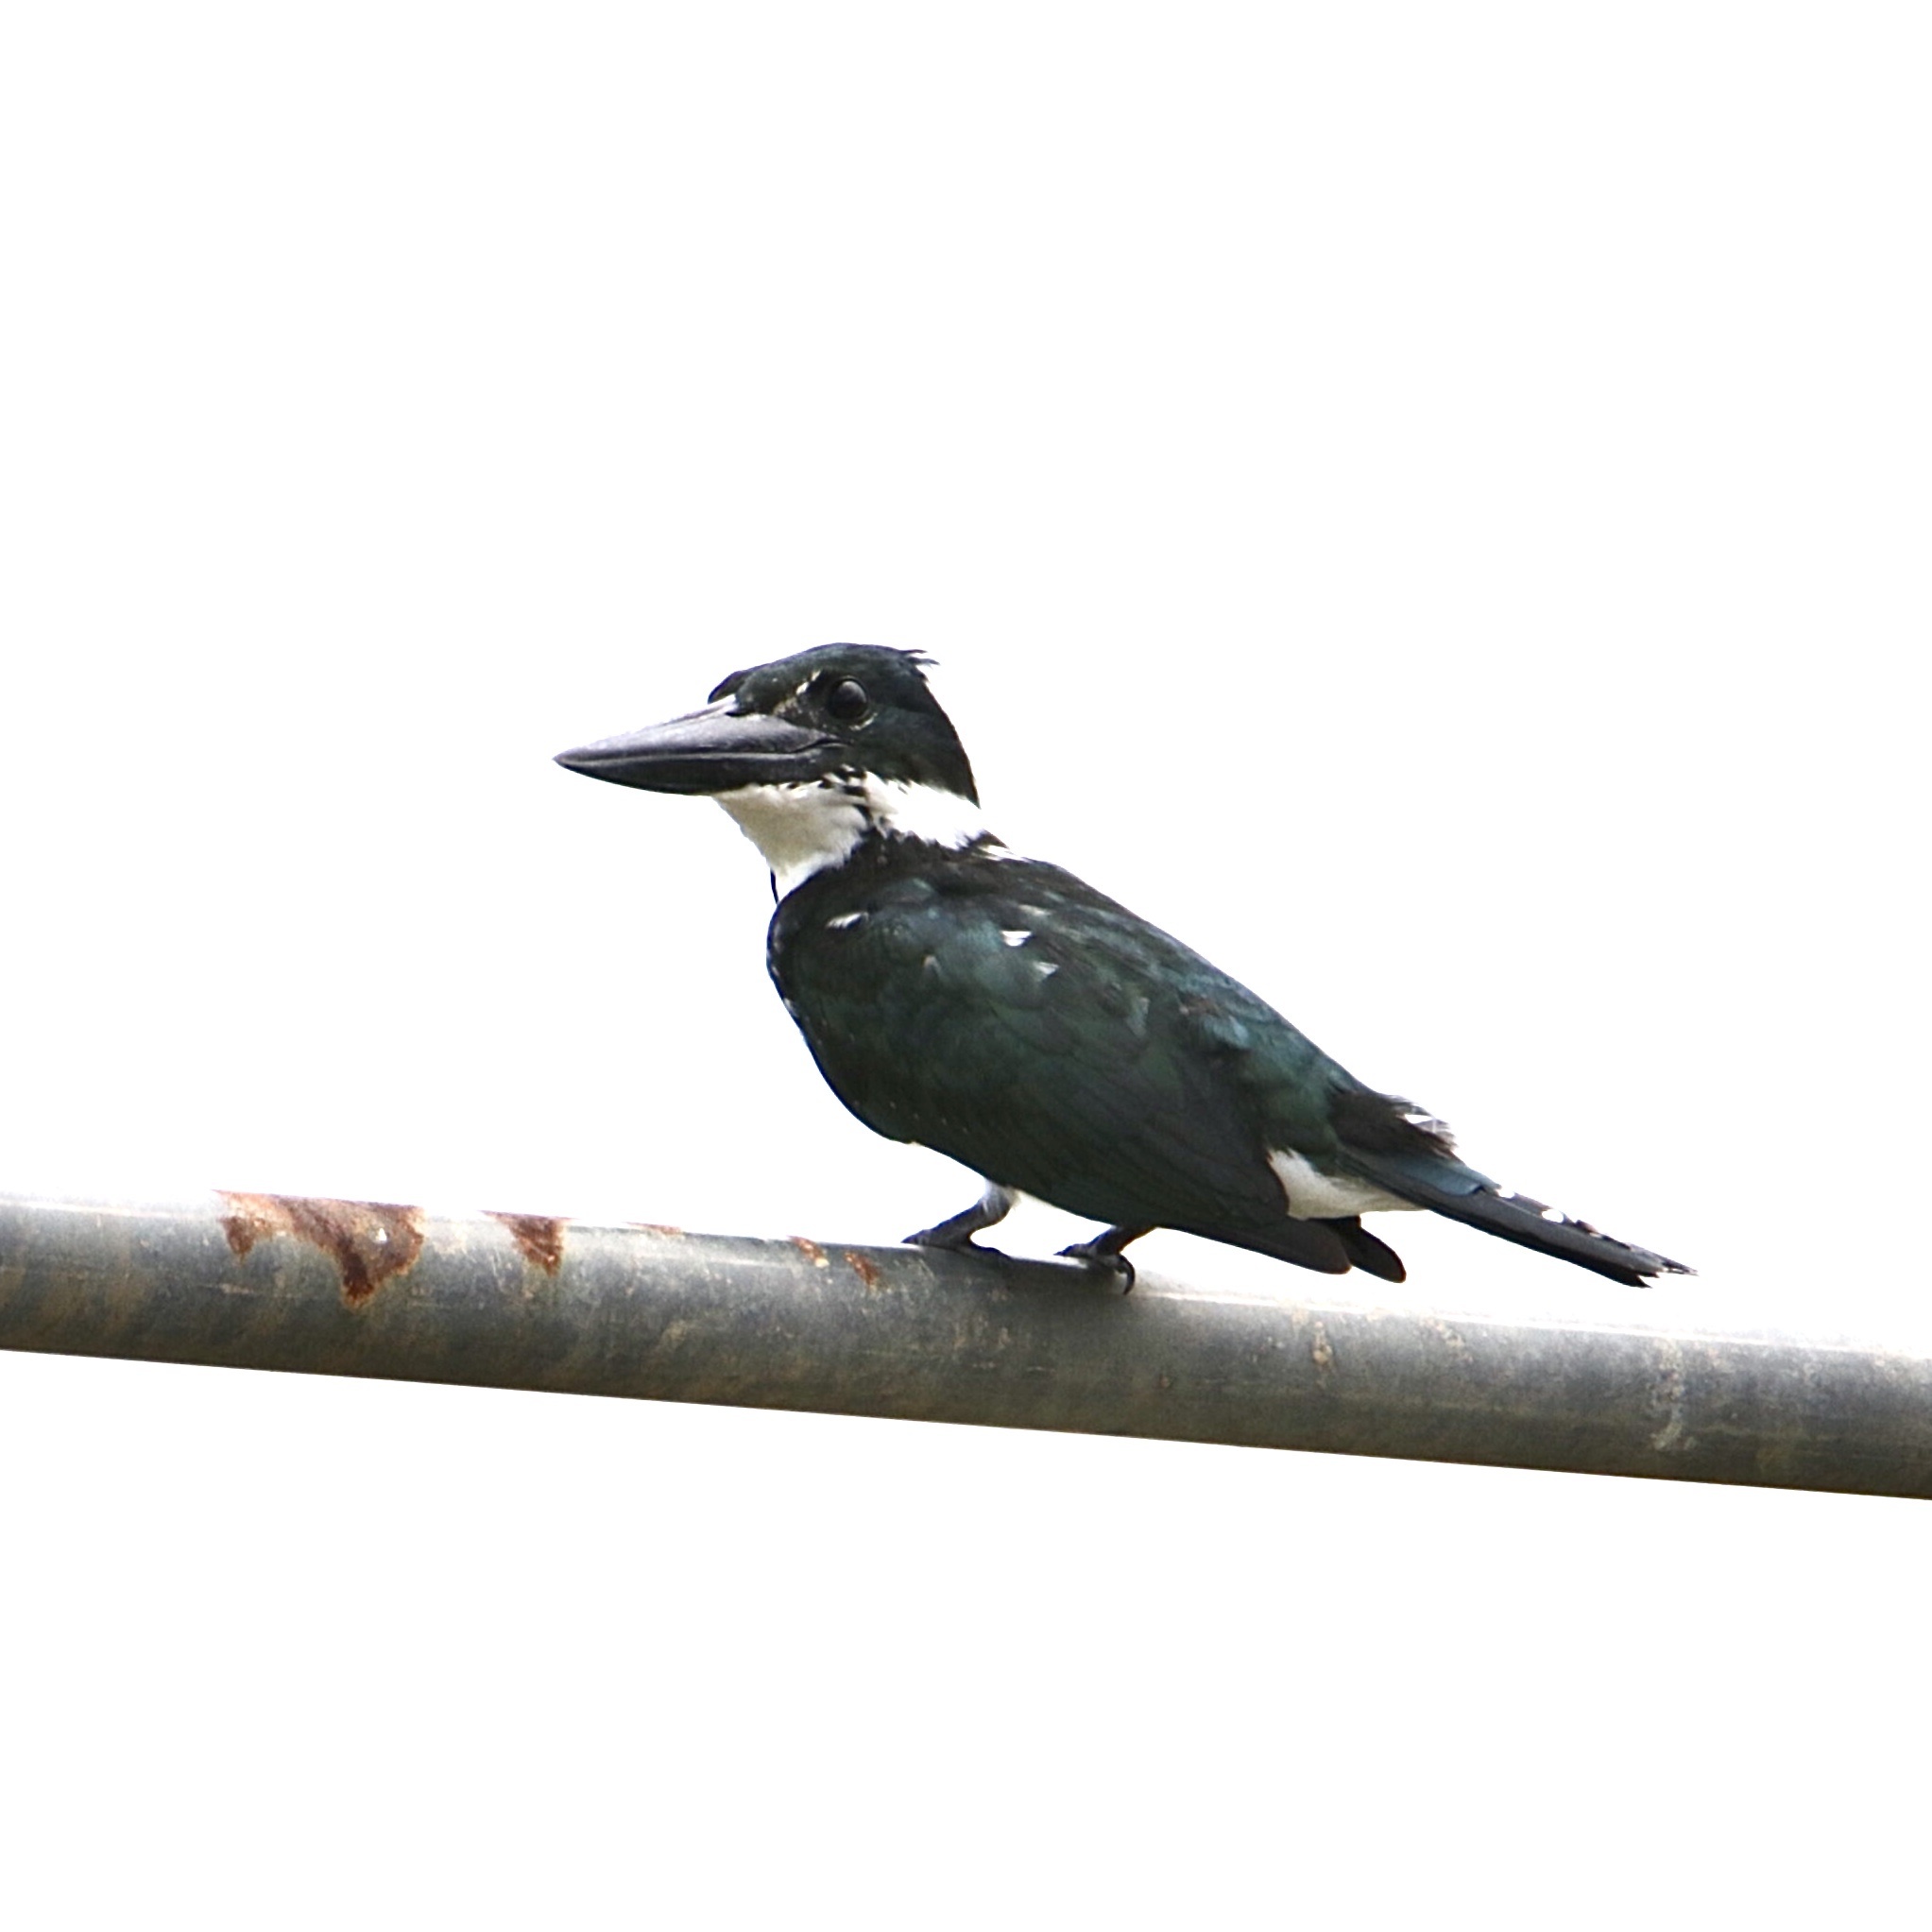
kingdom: Animalia
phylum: Chordata
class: Aves
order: Coraciiformes
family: Alcedinidae
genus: Chloroceryle
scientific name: Chloroceryle amazona
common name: Amazon kingfisher
